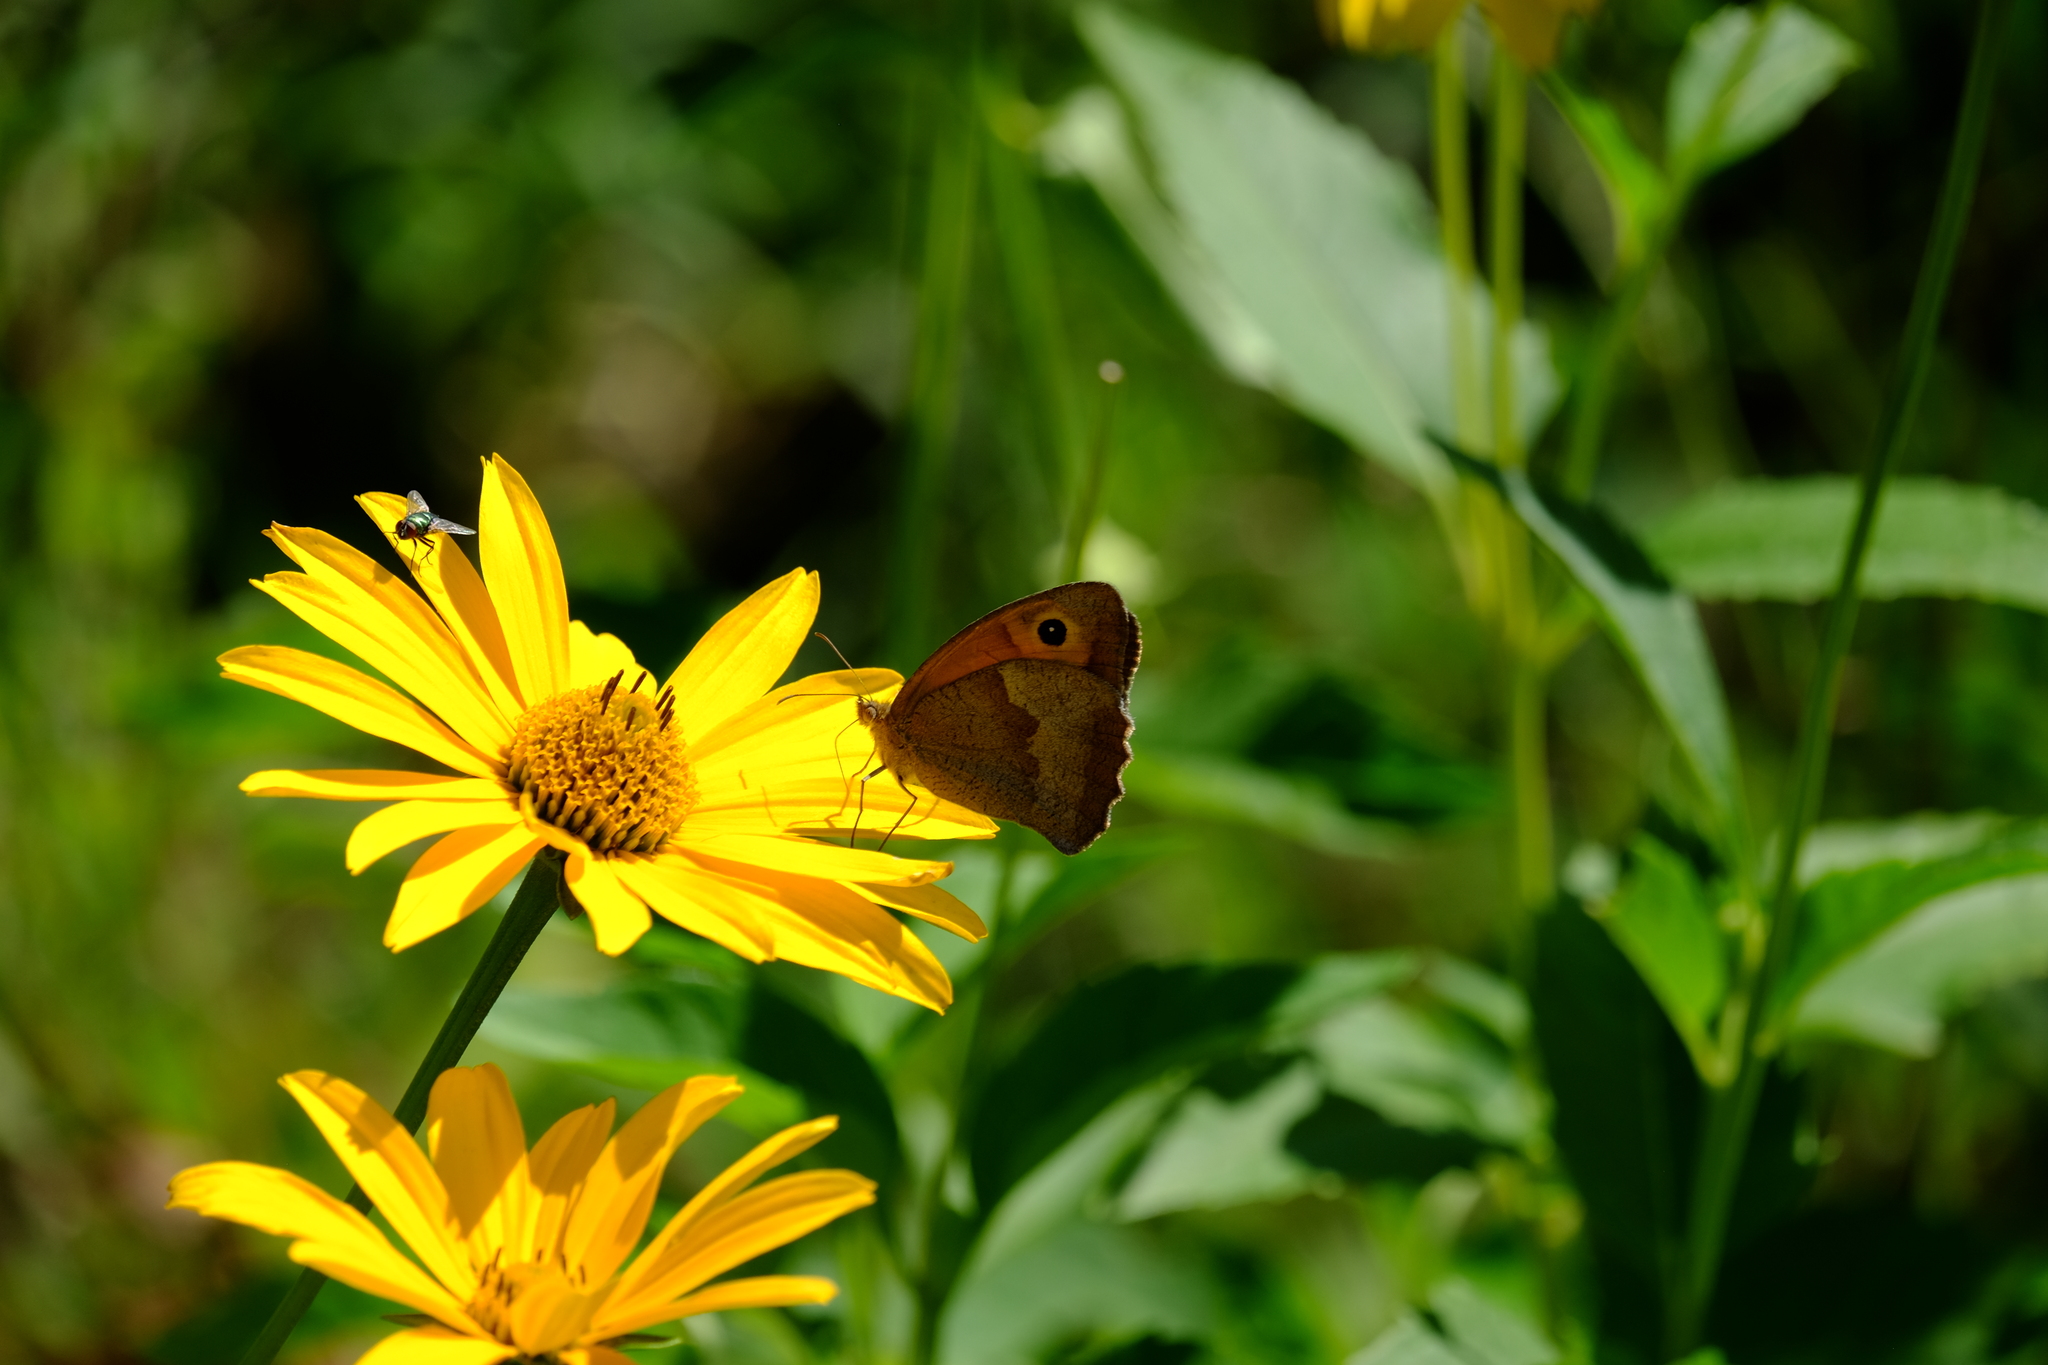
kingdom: Animalia
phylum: Arthropoda
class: Insecta
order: Lepidoptera
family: Nymphalidae
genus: Maniola
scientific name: Maniola jurtina
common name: Meadow brown
